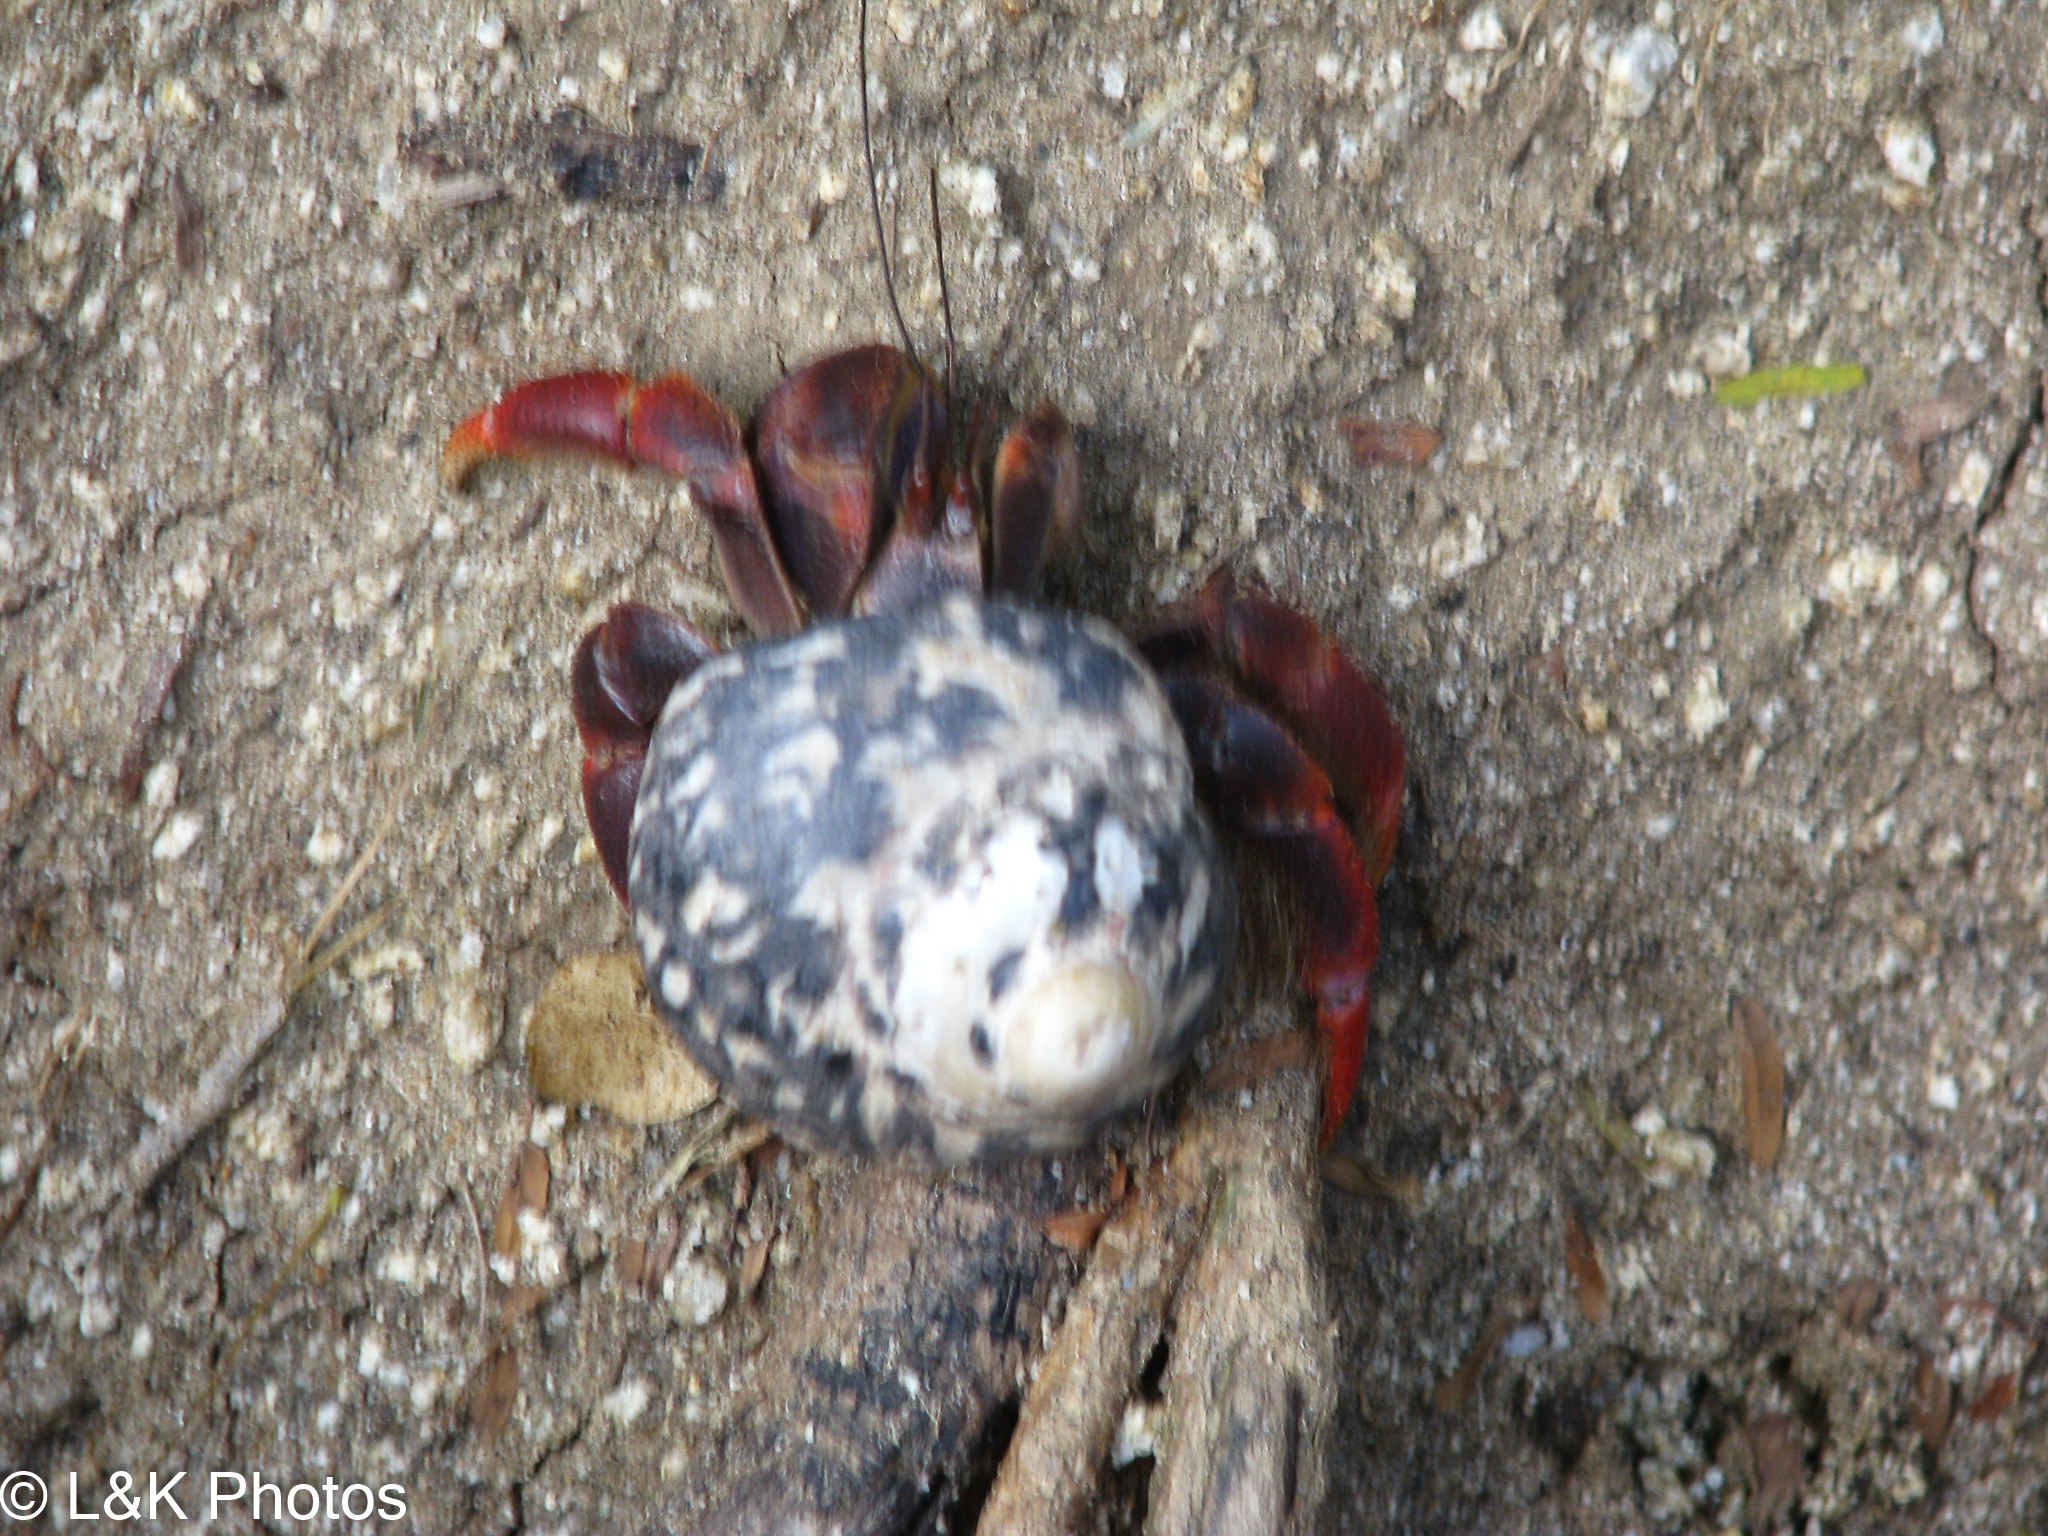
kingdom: Animalia
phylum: Arthropoda
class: Malacostraca
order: Decapoda
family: Coenobitidae
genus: Coenobita
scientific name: Coenobita clypeatus
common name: Caribbean hermit crab
